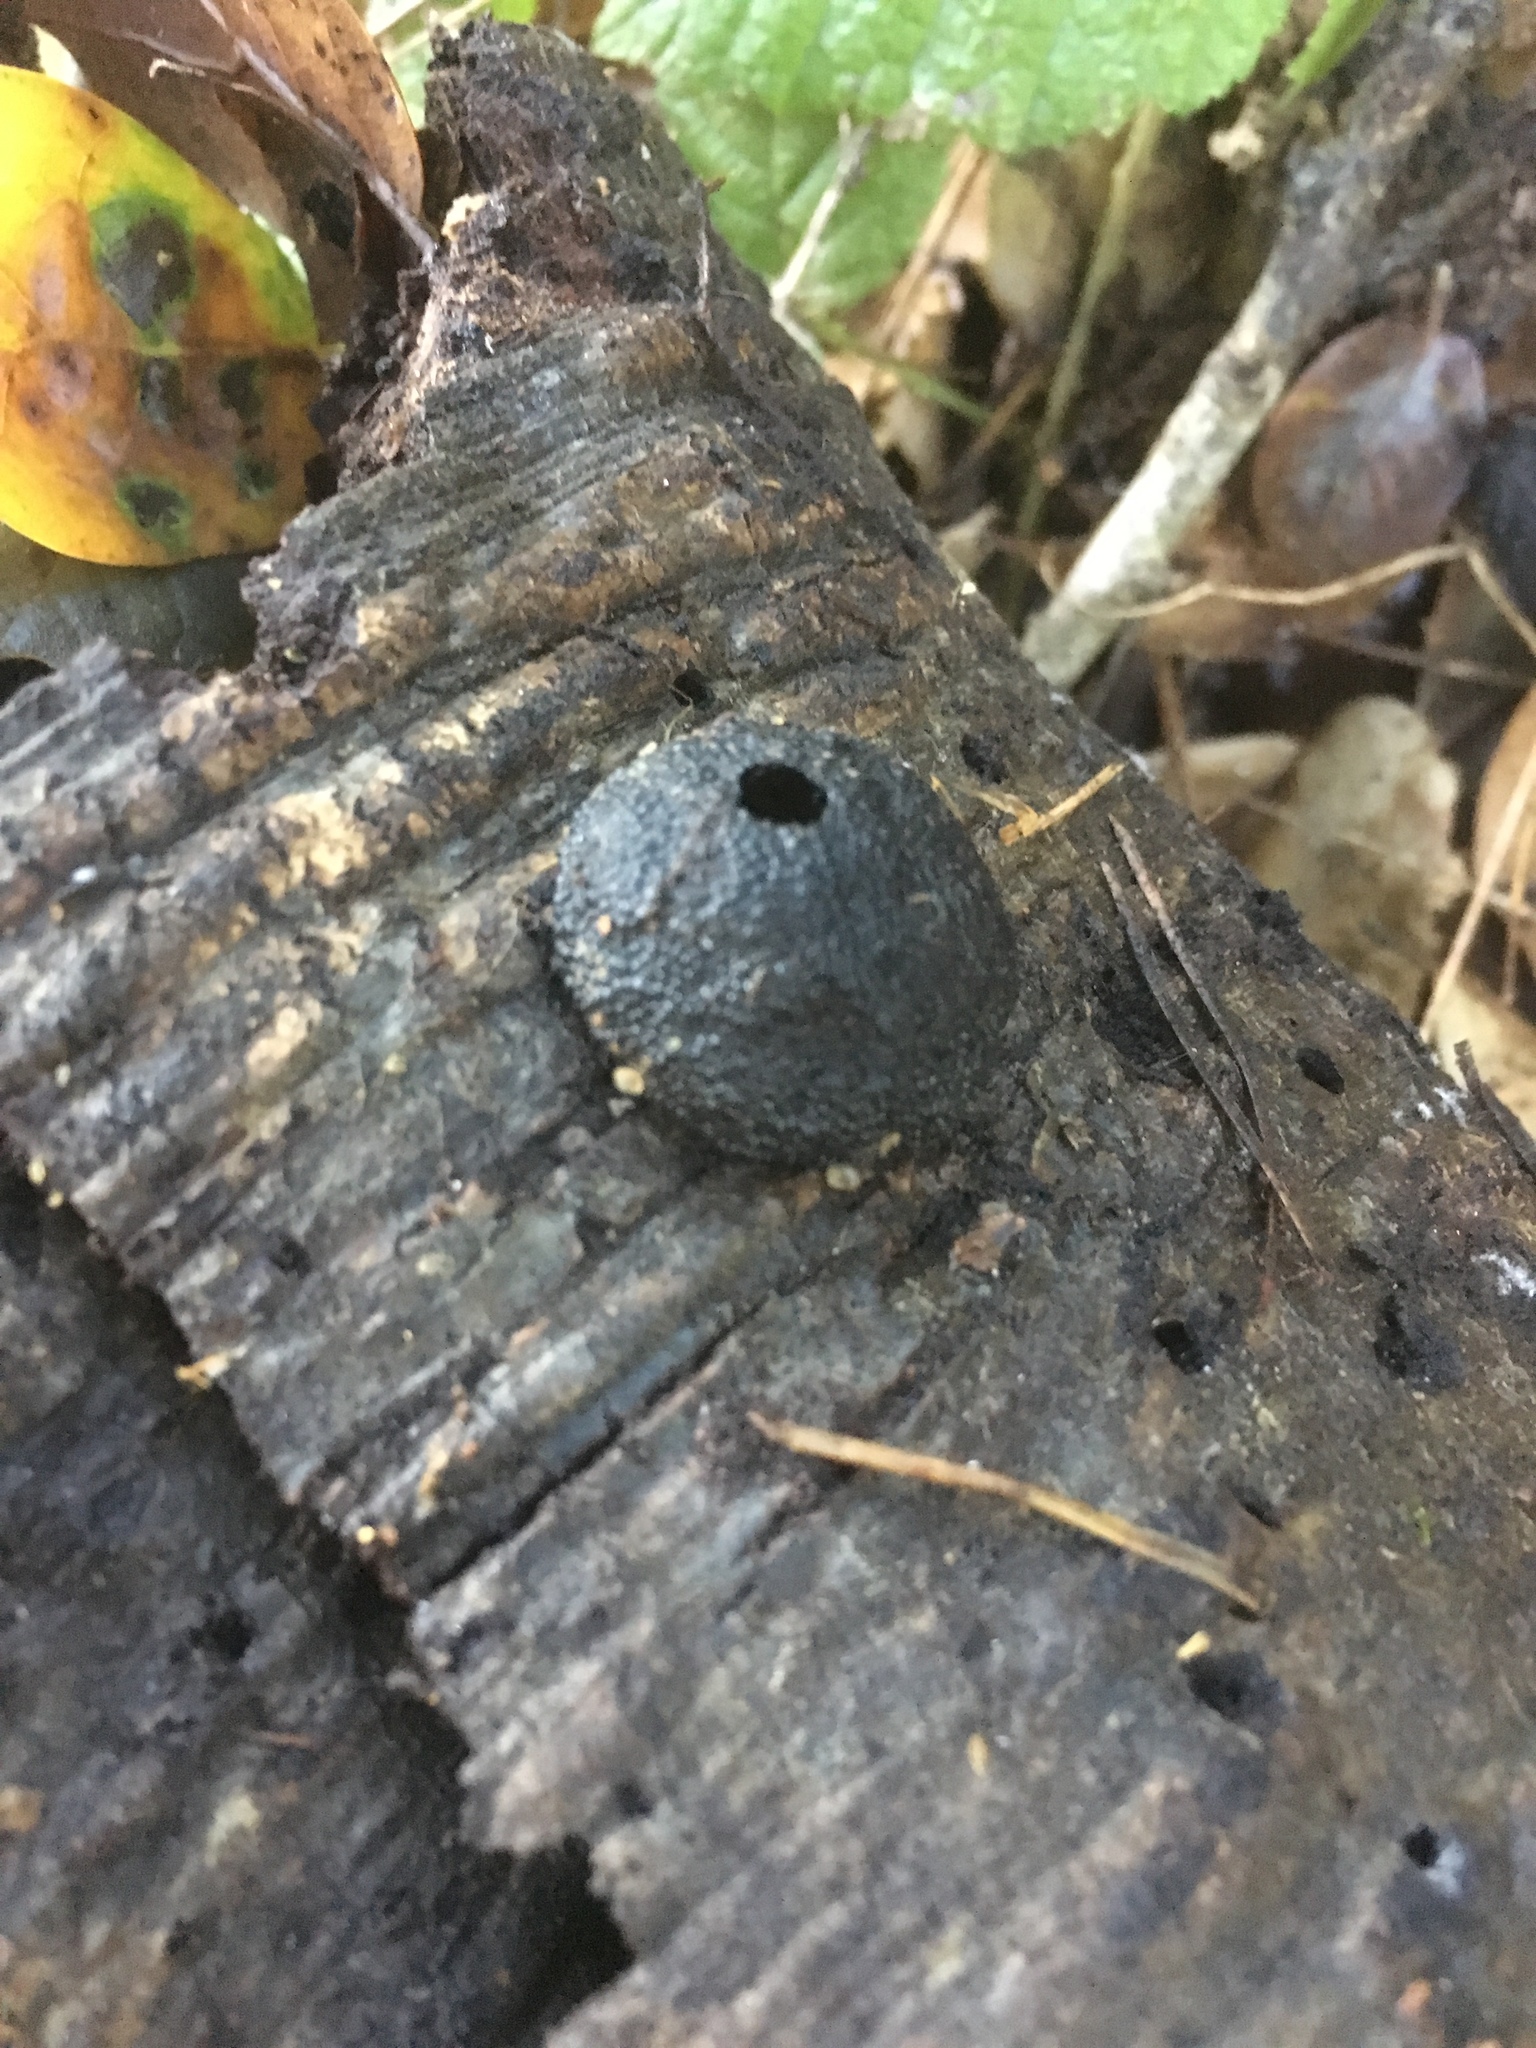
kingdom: Fungi
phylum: Ascomycota
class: Sordariomycetes
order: Xylariales
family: Hypoxylaceae
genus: Annulohypoxylon
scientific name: Annulohypoxylon thouarsianum
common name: Cramp balls
